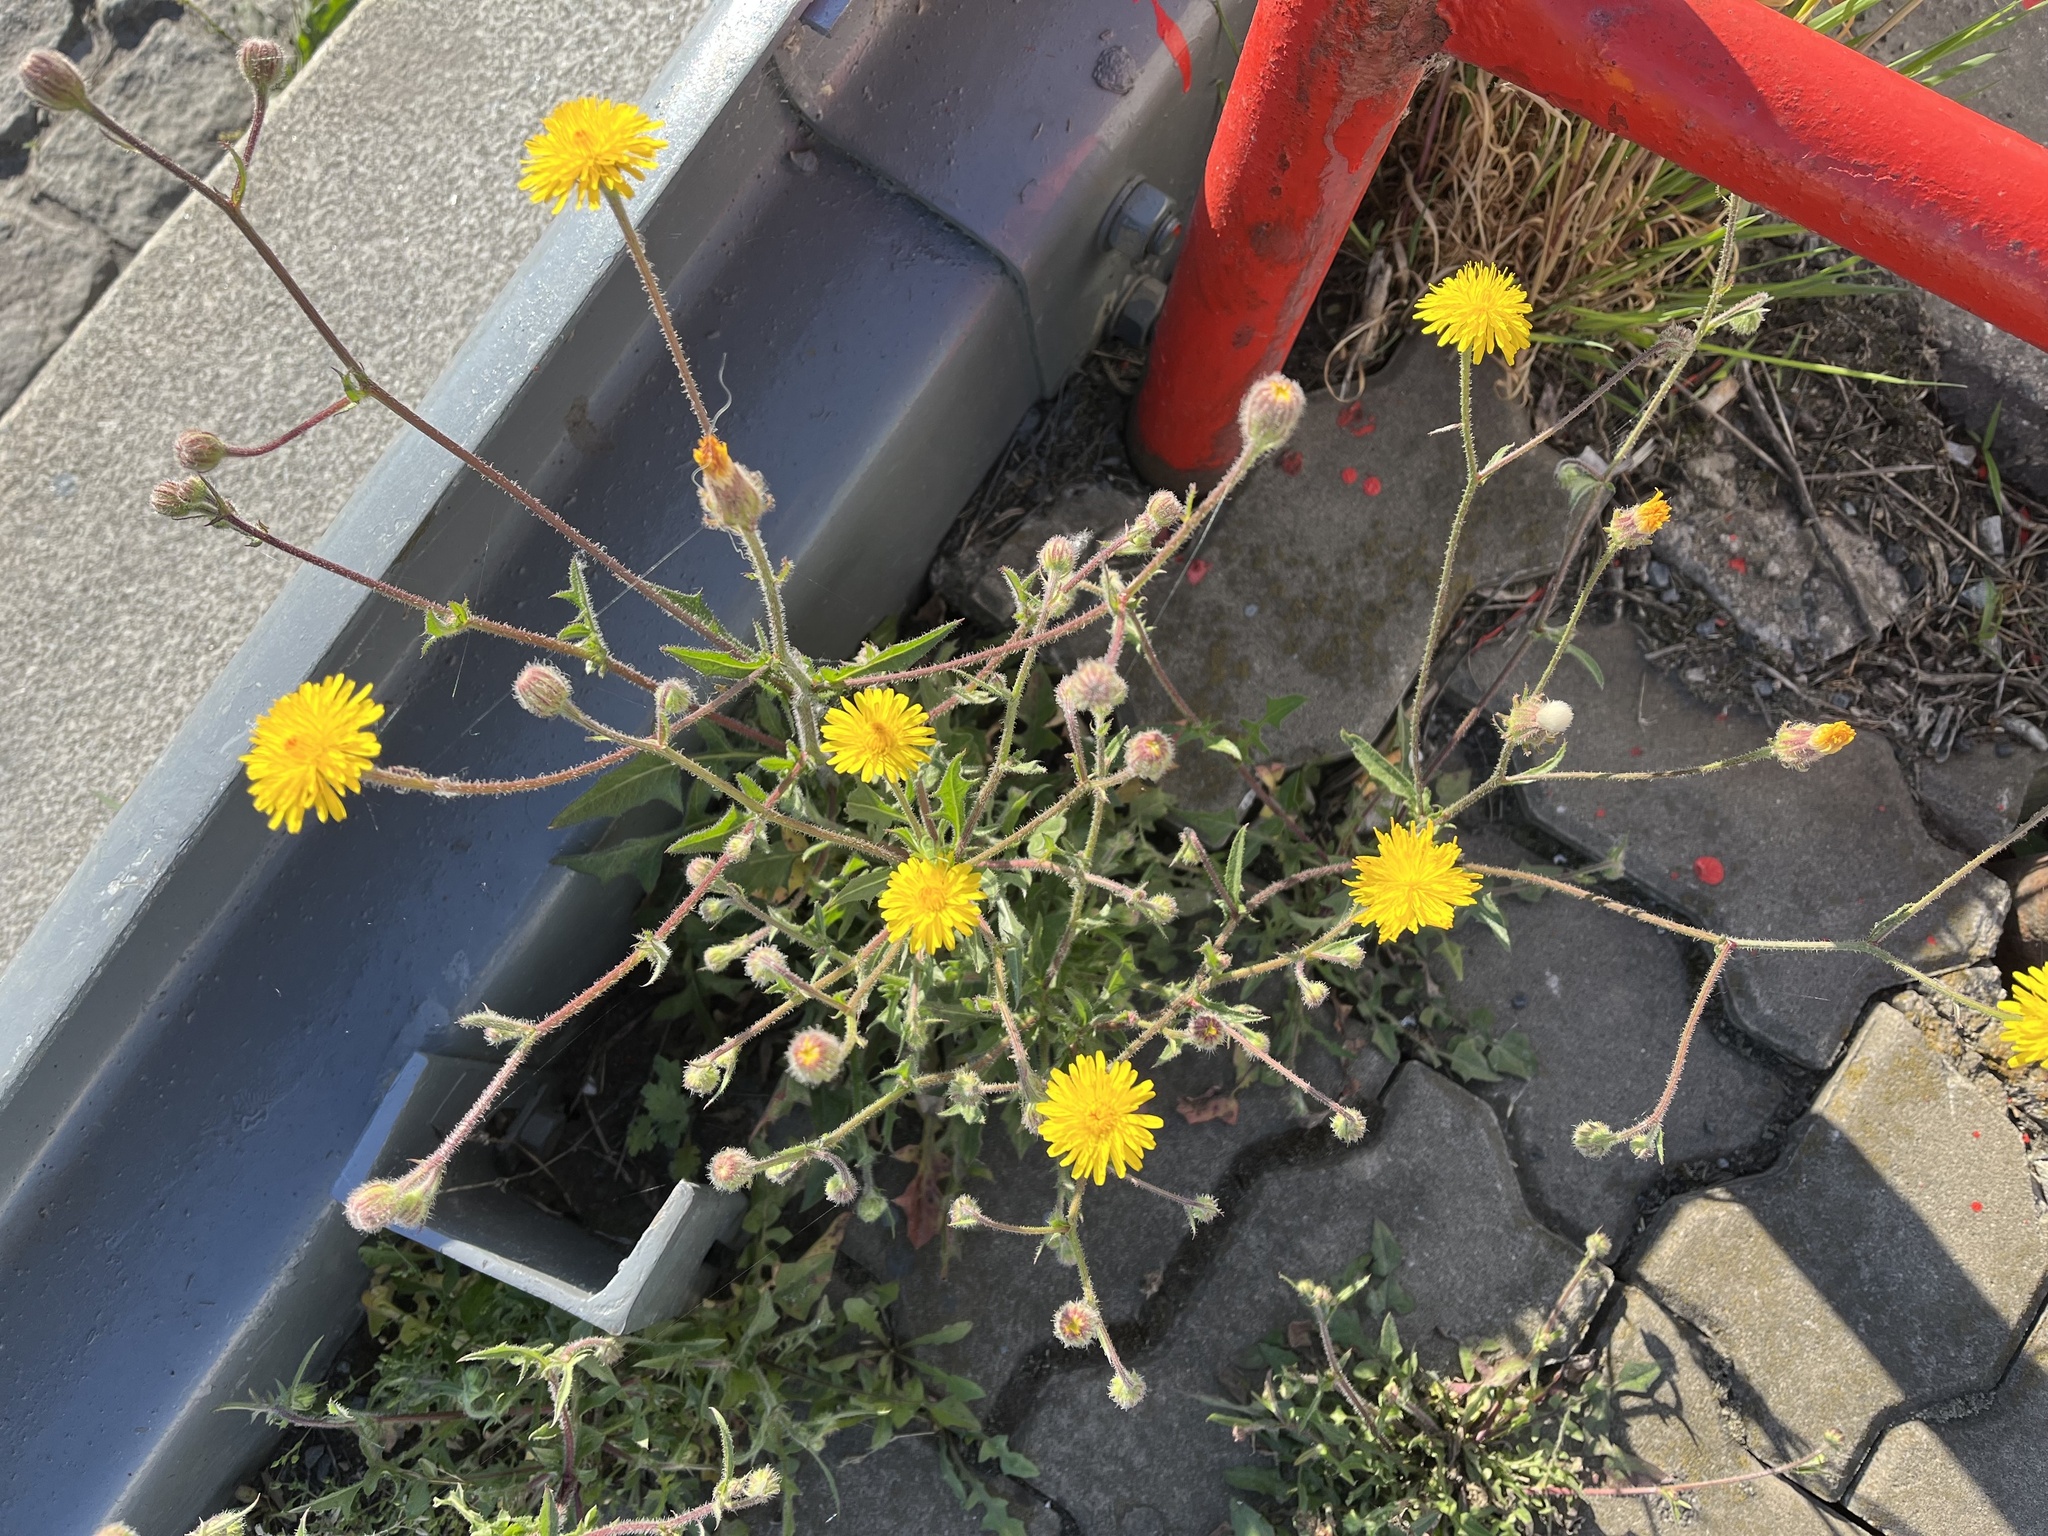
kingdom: Plantae
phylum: Tracheophyta
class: Magnoliopsida
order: Asterales
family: Asteraceae
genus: Crepis
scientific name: Crepis foetida
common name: Stinking hawk's-beard
